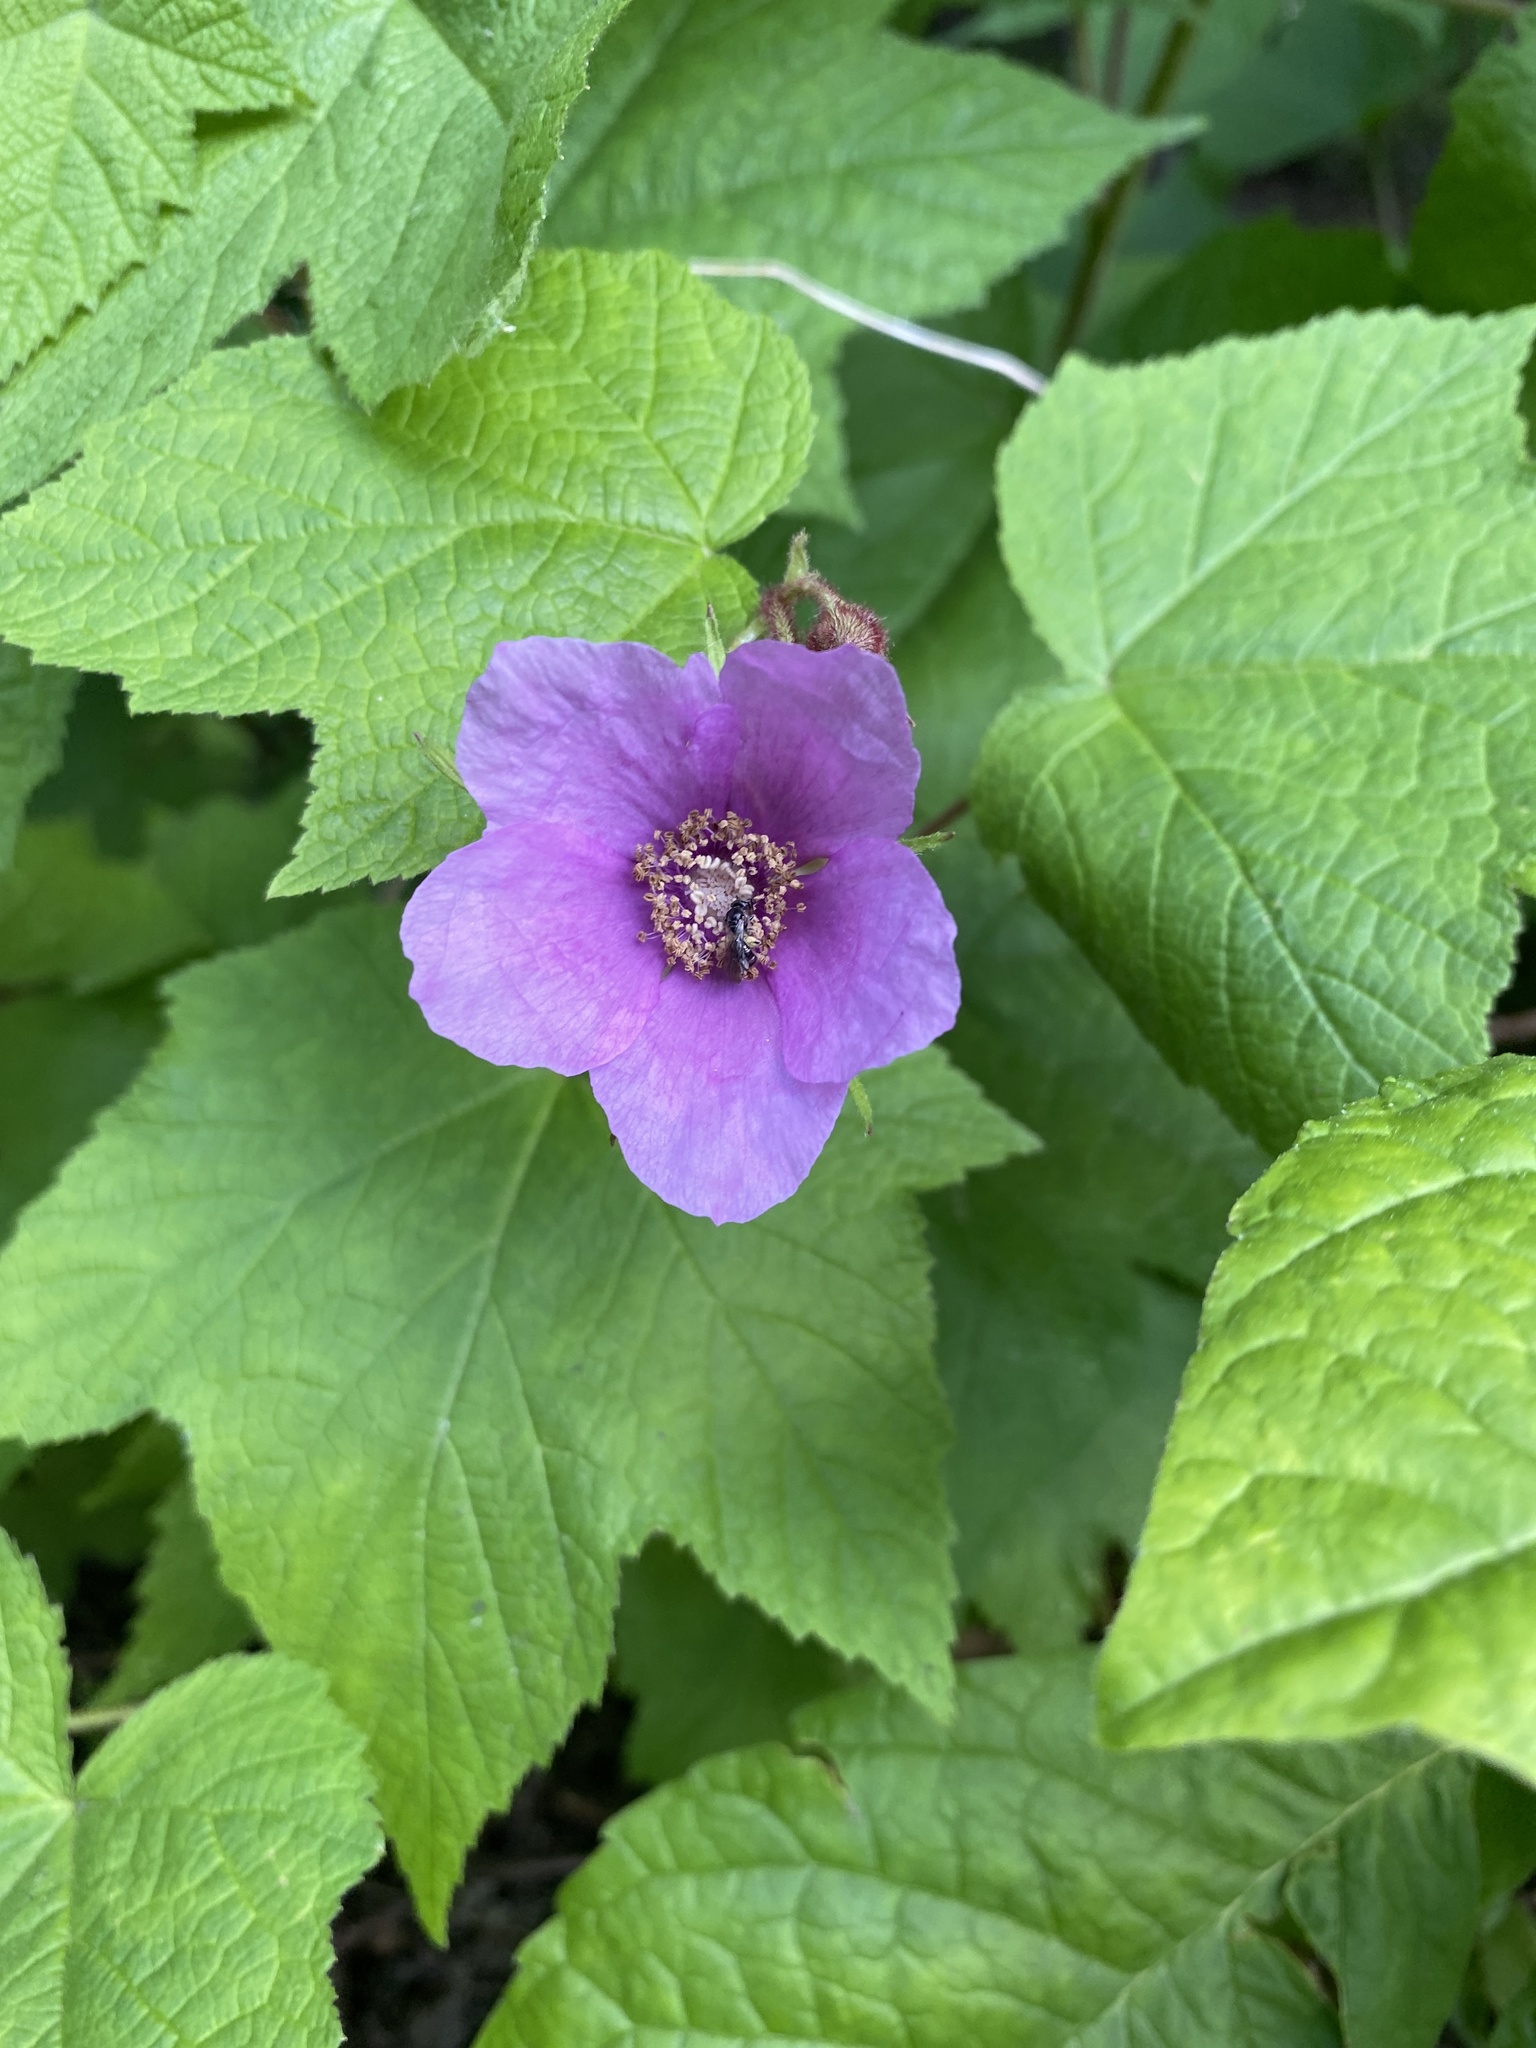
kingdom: Plantae
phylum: Tracheophyta
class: Magnoliopsida
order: Rosales
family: Rosaceae
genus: Rubus
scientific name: Rubus odoratus
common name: Purple-flowered raspberry
